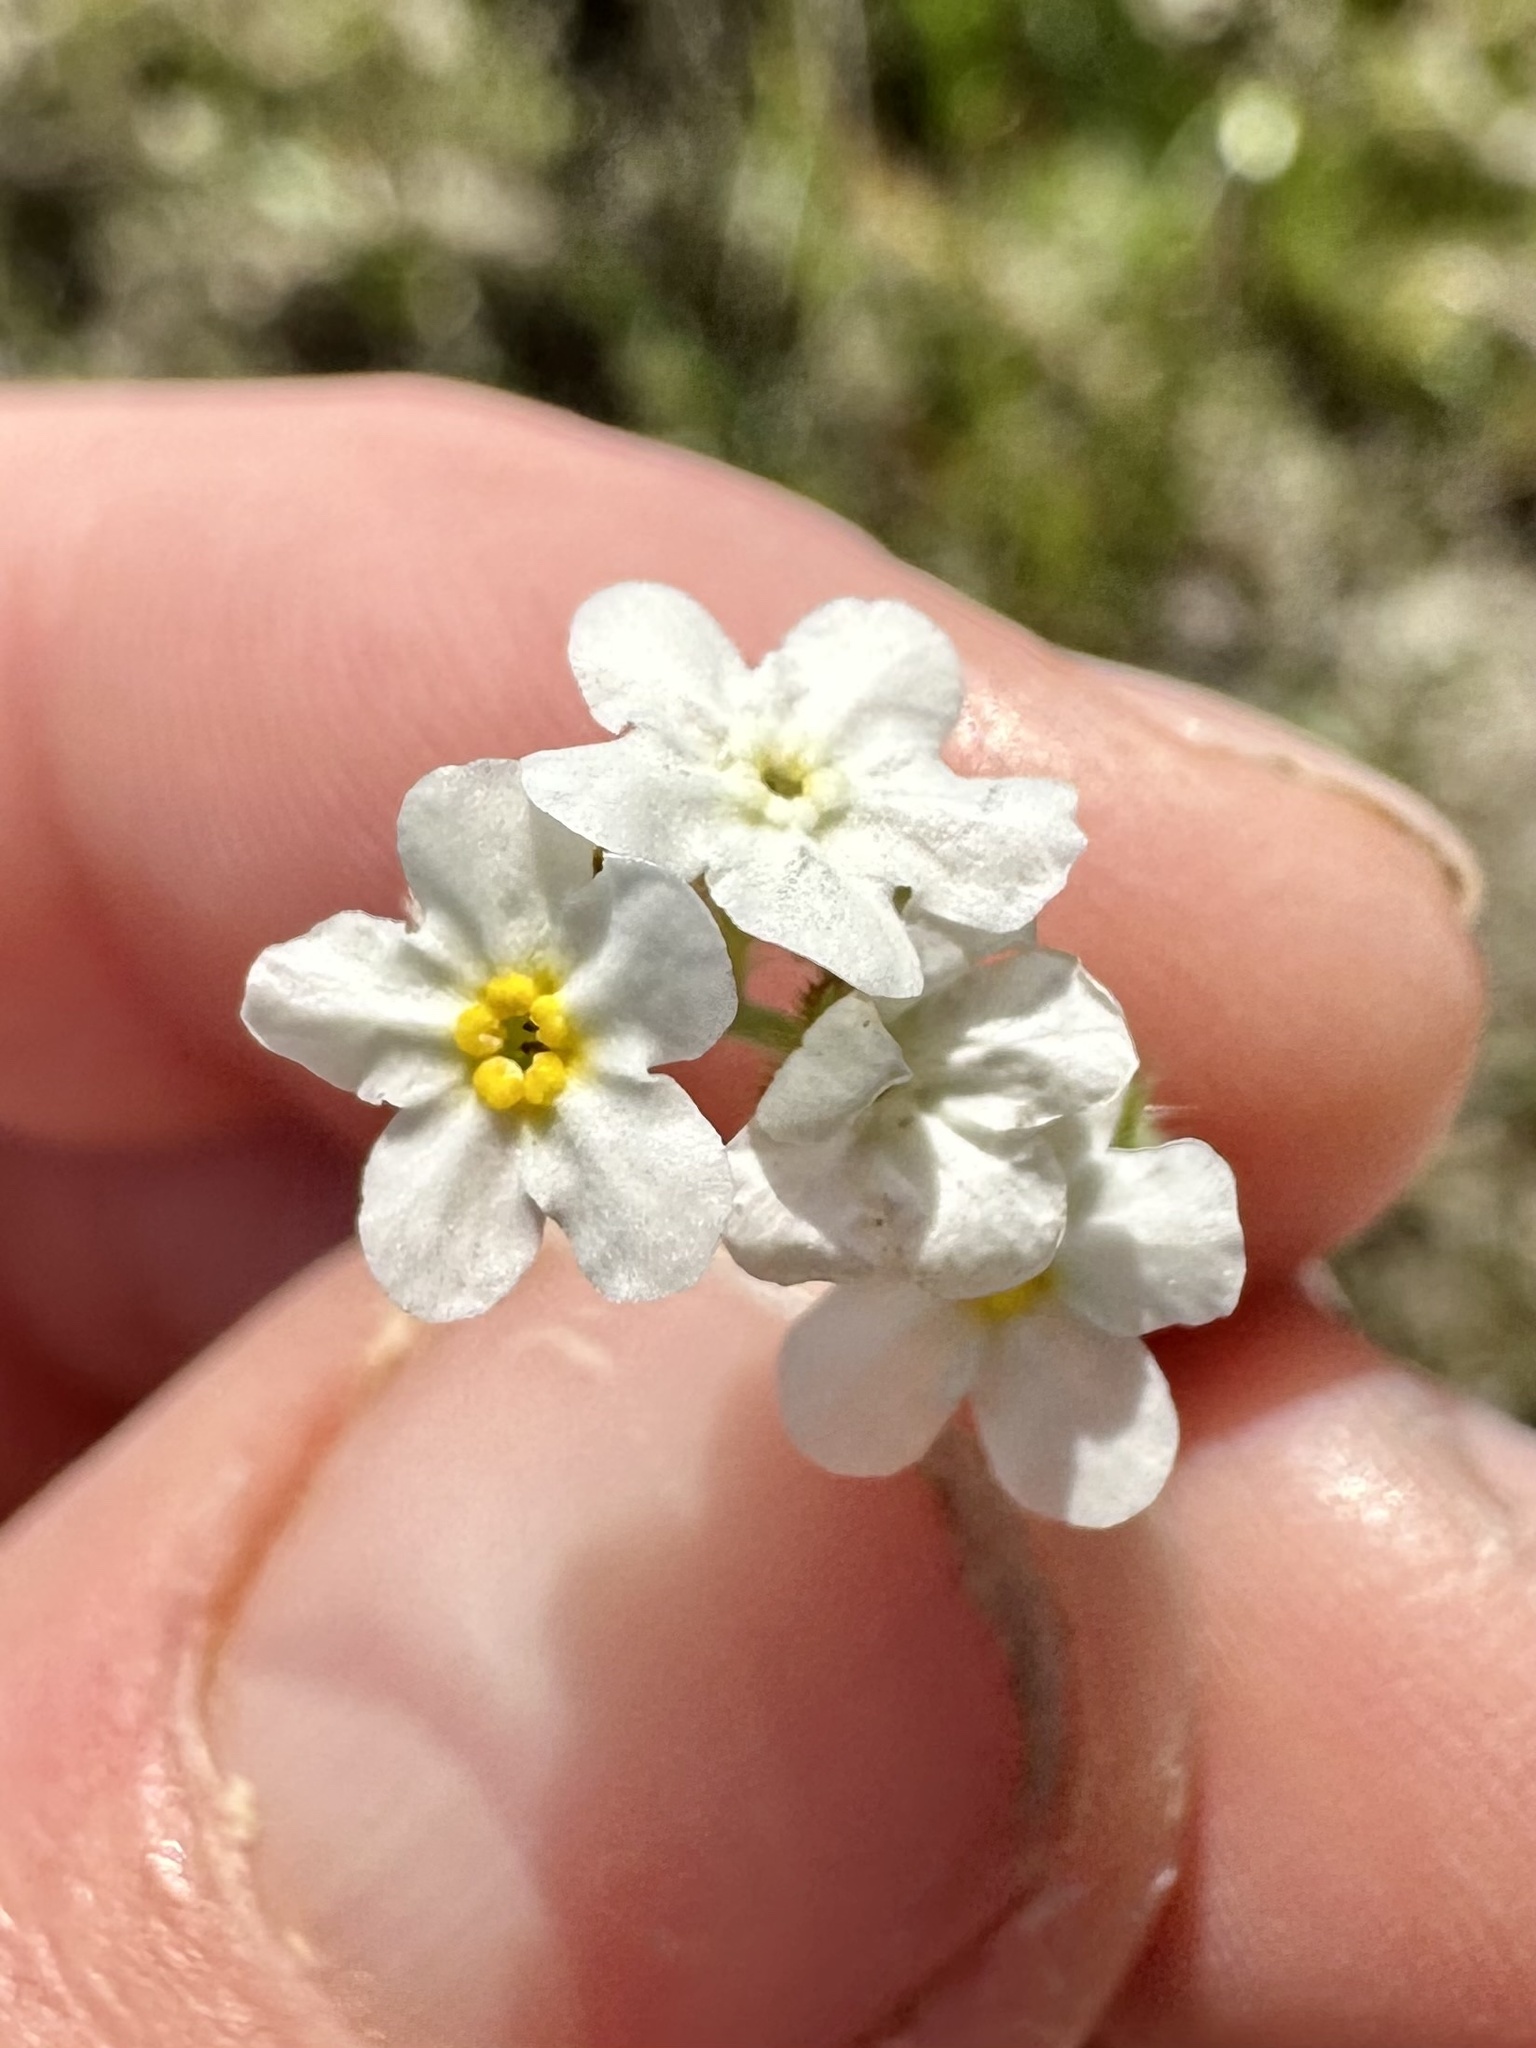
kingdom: Plantae
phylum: Tracheophyta
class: Magnoliopsida
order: Boraginales
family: Boraginaceae
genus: Plagiobothrys
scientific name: Plagiobothrys figuratus
